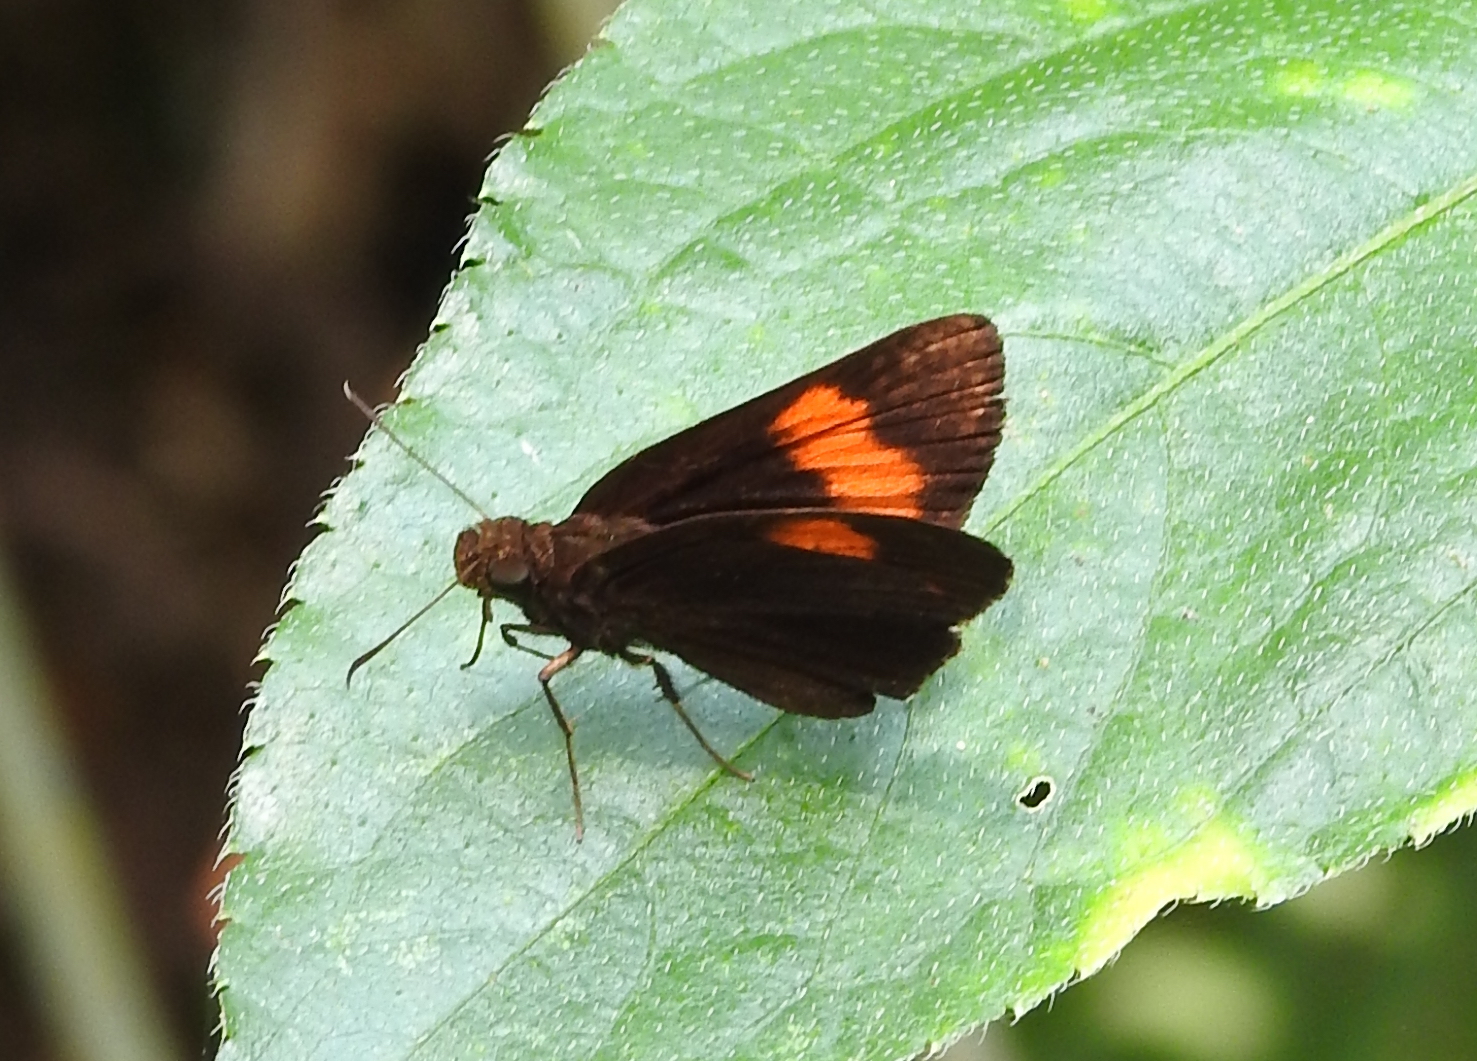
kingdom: Animalia
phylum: Arthropoda
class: Insecta
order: Lepidoptera
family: Hesperiidae
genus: Koruthaialos
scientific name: Koruthaialos sindu
